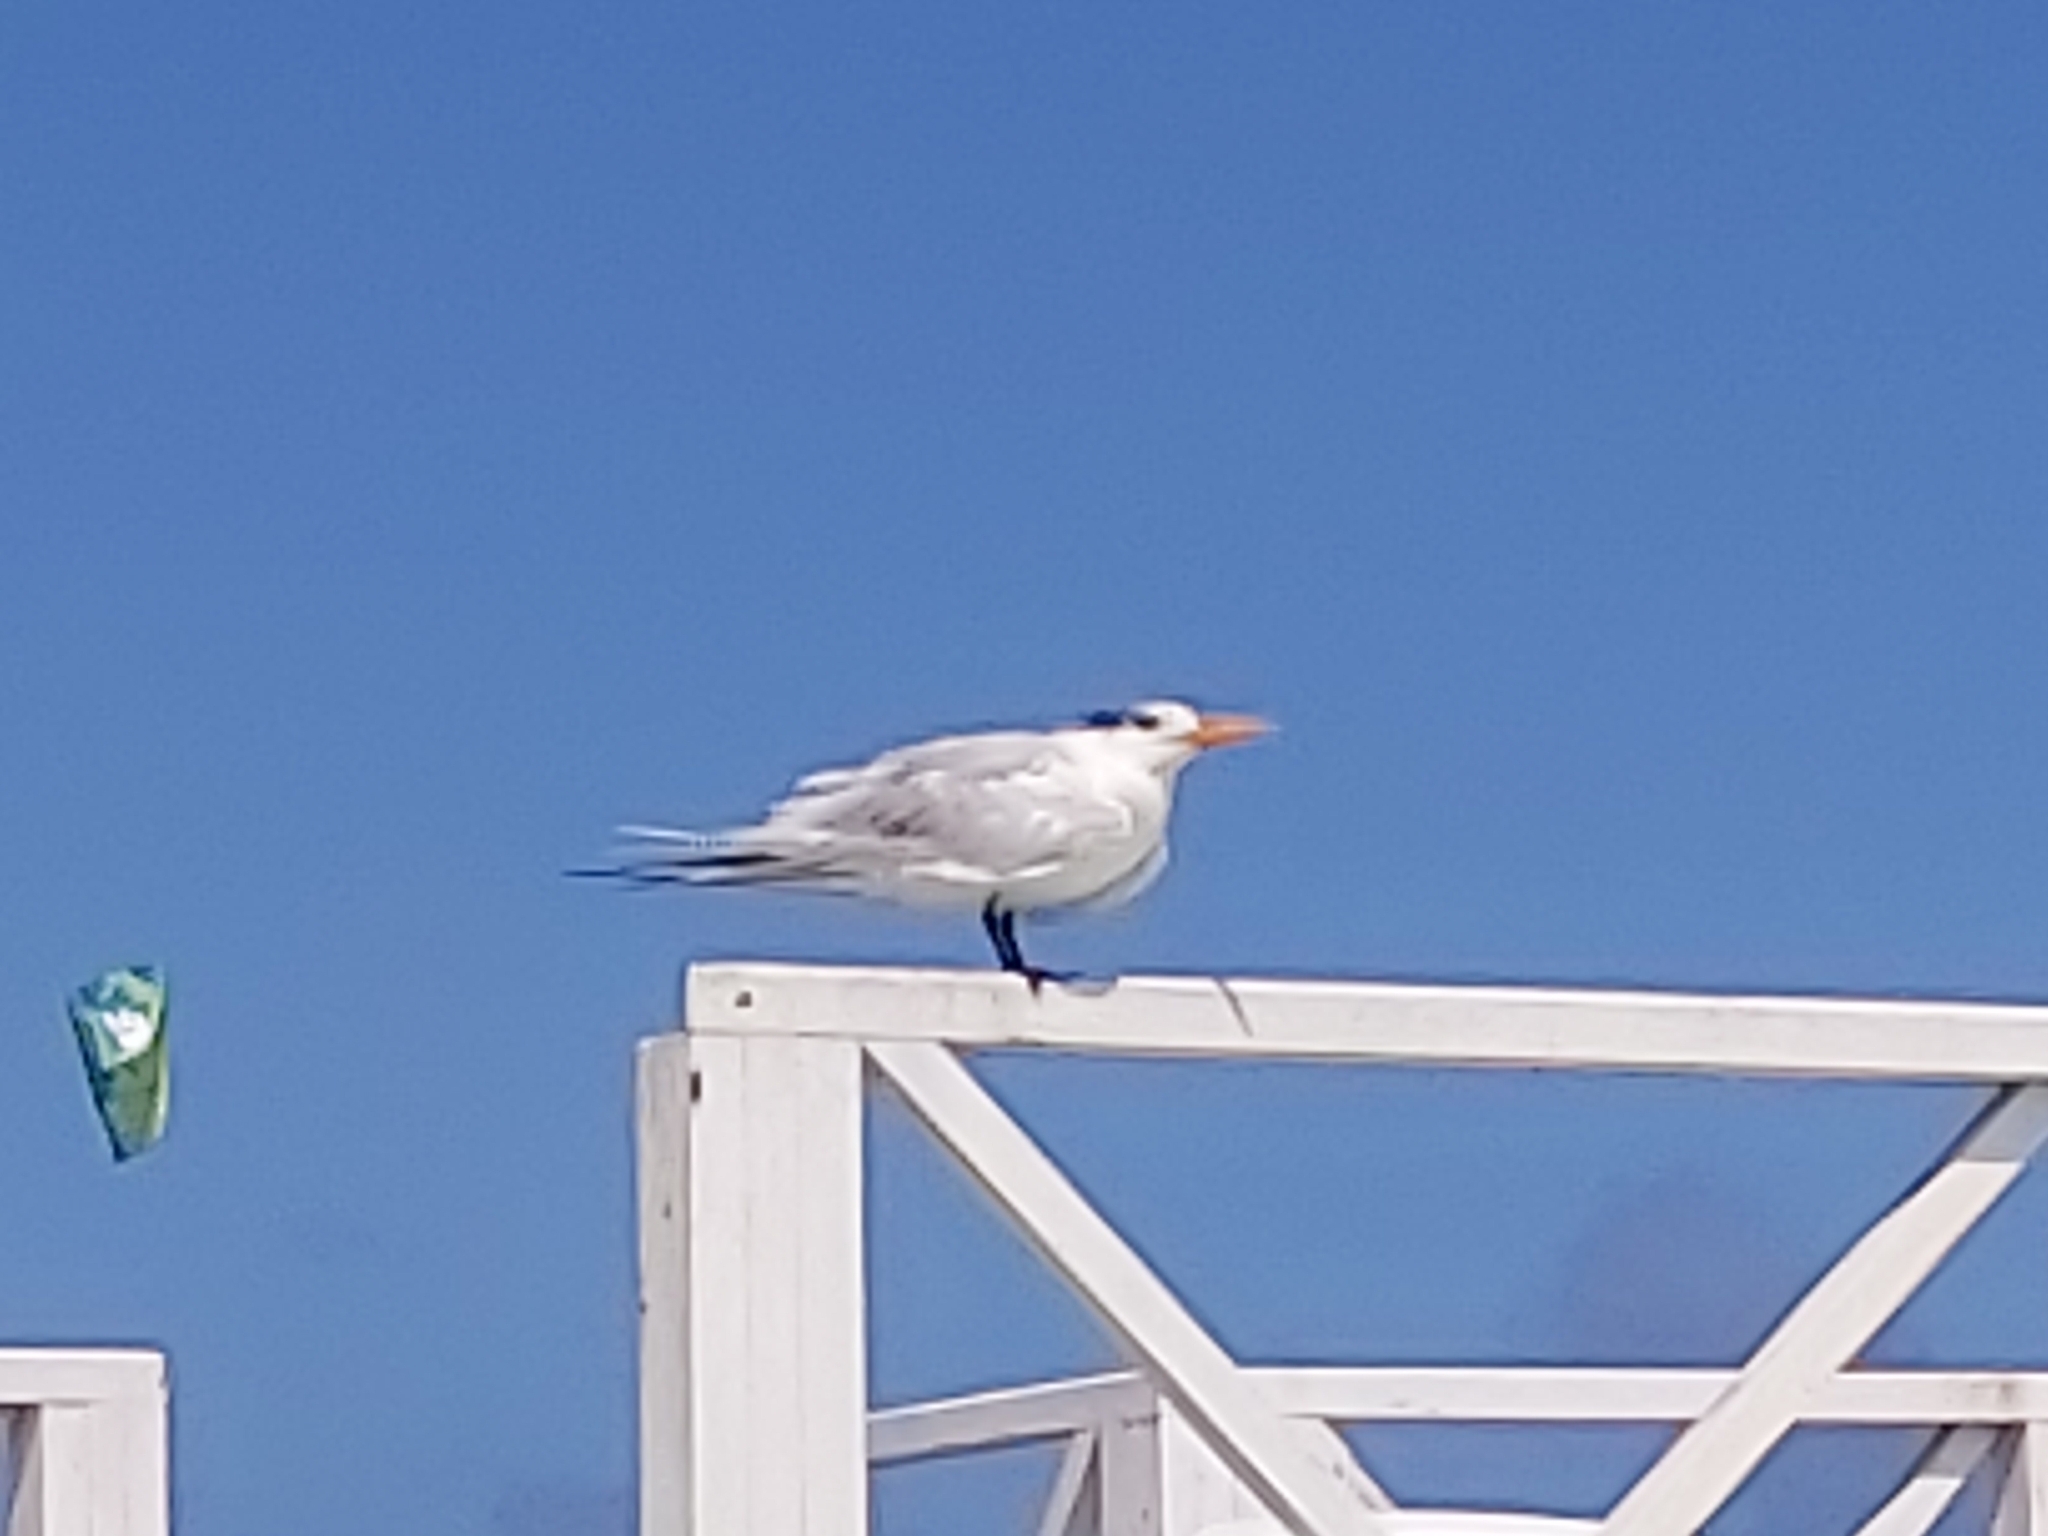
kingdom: Animalia
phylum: Chordata
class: Aves
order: Charadriiformes
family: Laridae
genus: Thalasseus
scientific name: Thalasseus maximus
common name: Royal tern
